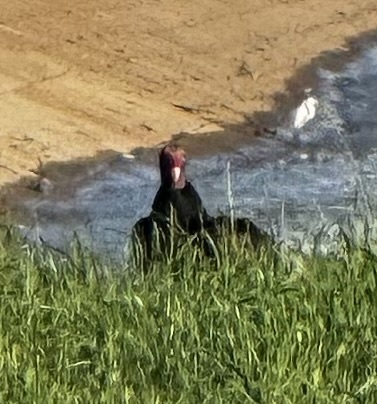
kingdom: Animalia
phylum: Chordata
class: Aves
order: Accipitriformes
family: Cathartidae
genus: Cathartes
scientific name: Cathartes aura
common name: Turkey vulture
